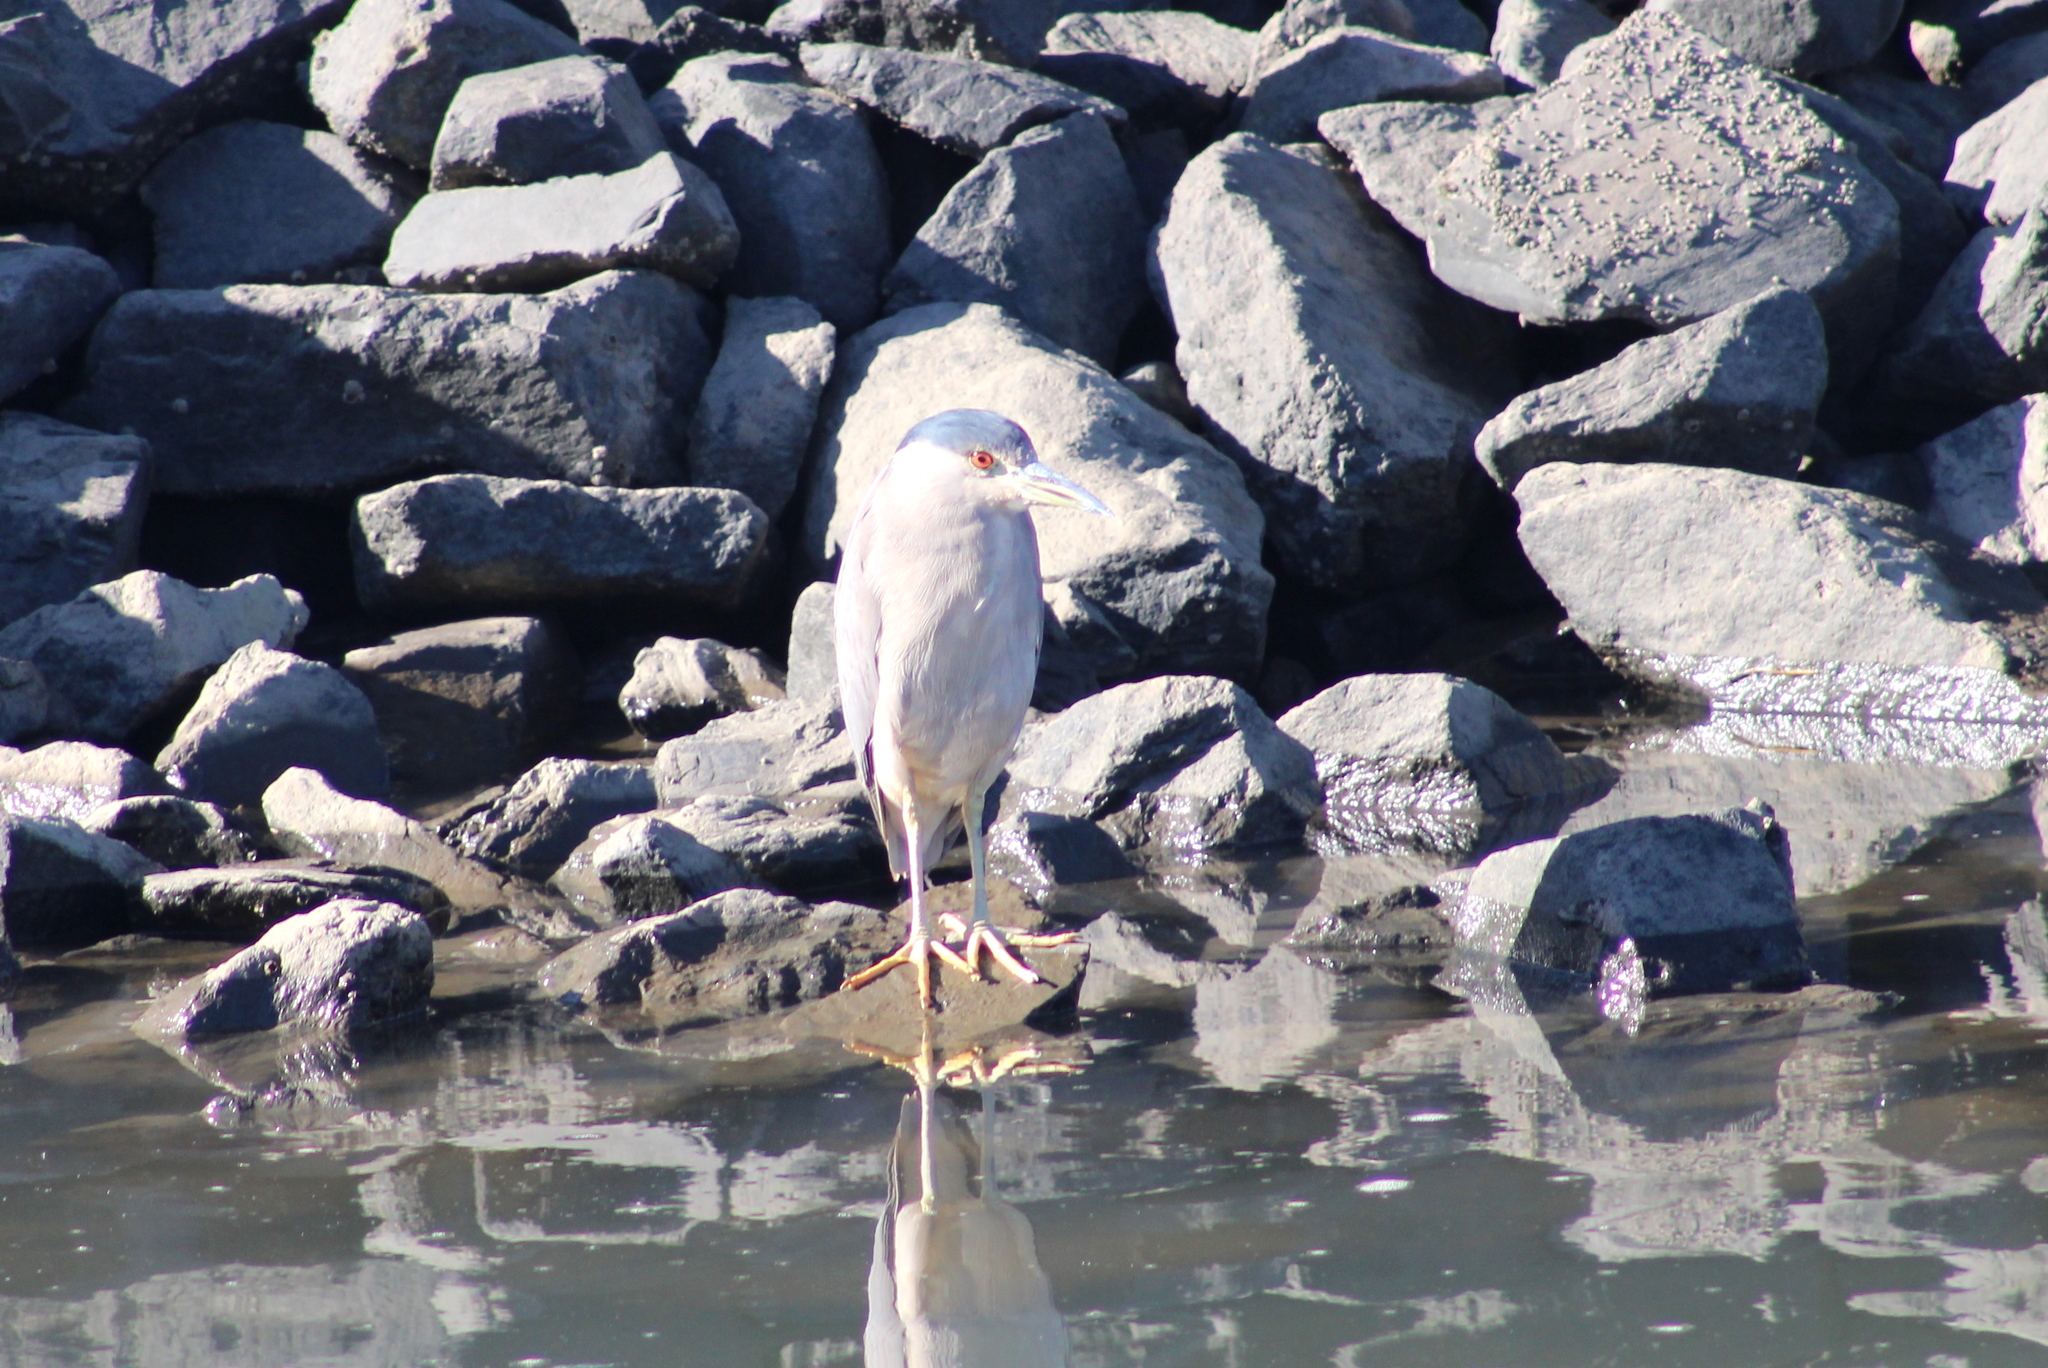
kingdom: Animalia
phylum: Chordata
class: Aves
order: Pelecaniformes
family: Ardeidae
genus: Nycticorax
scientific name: Nycticorax nycticorax
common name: Black-crowned night heron
